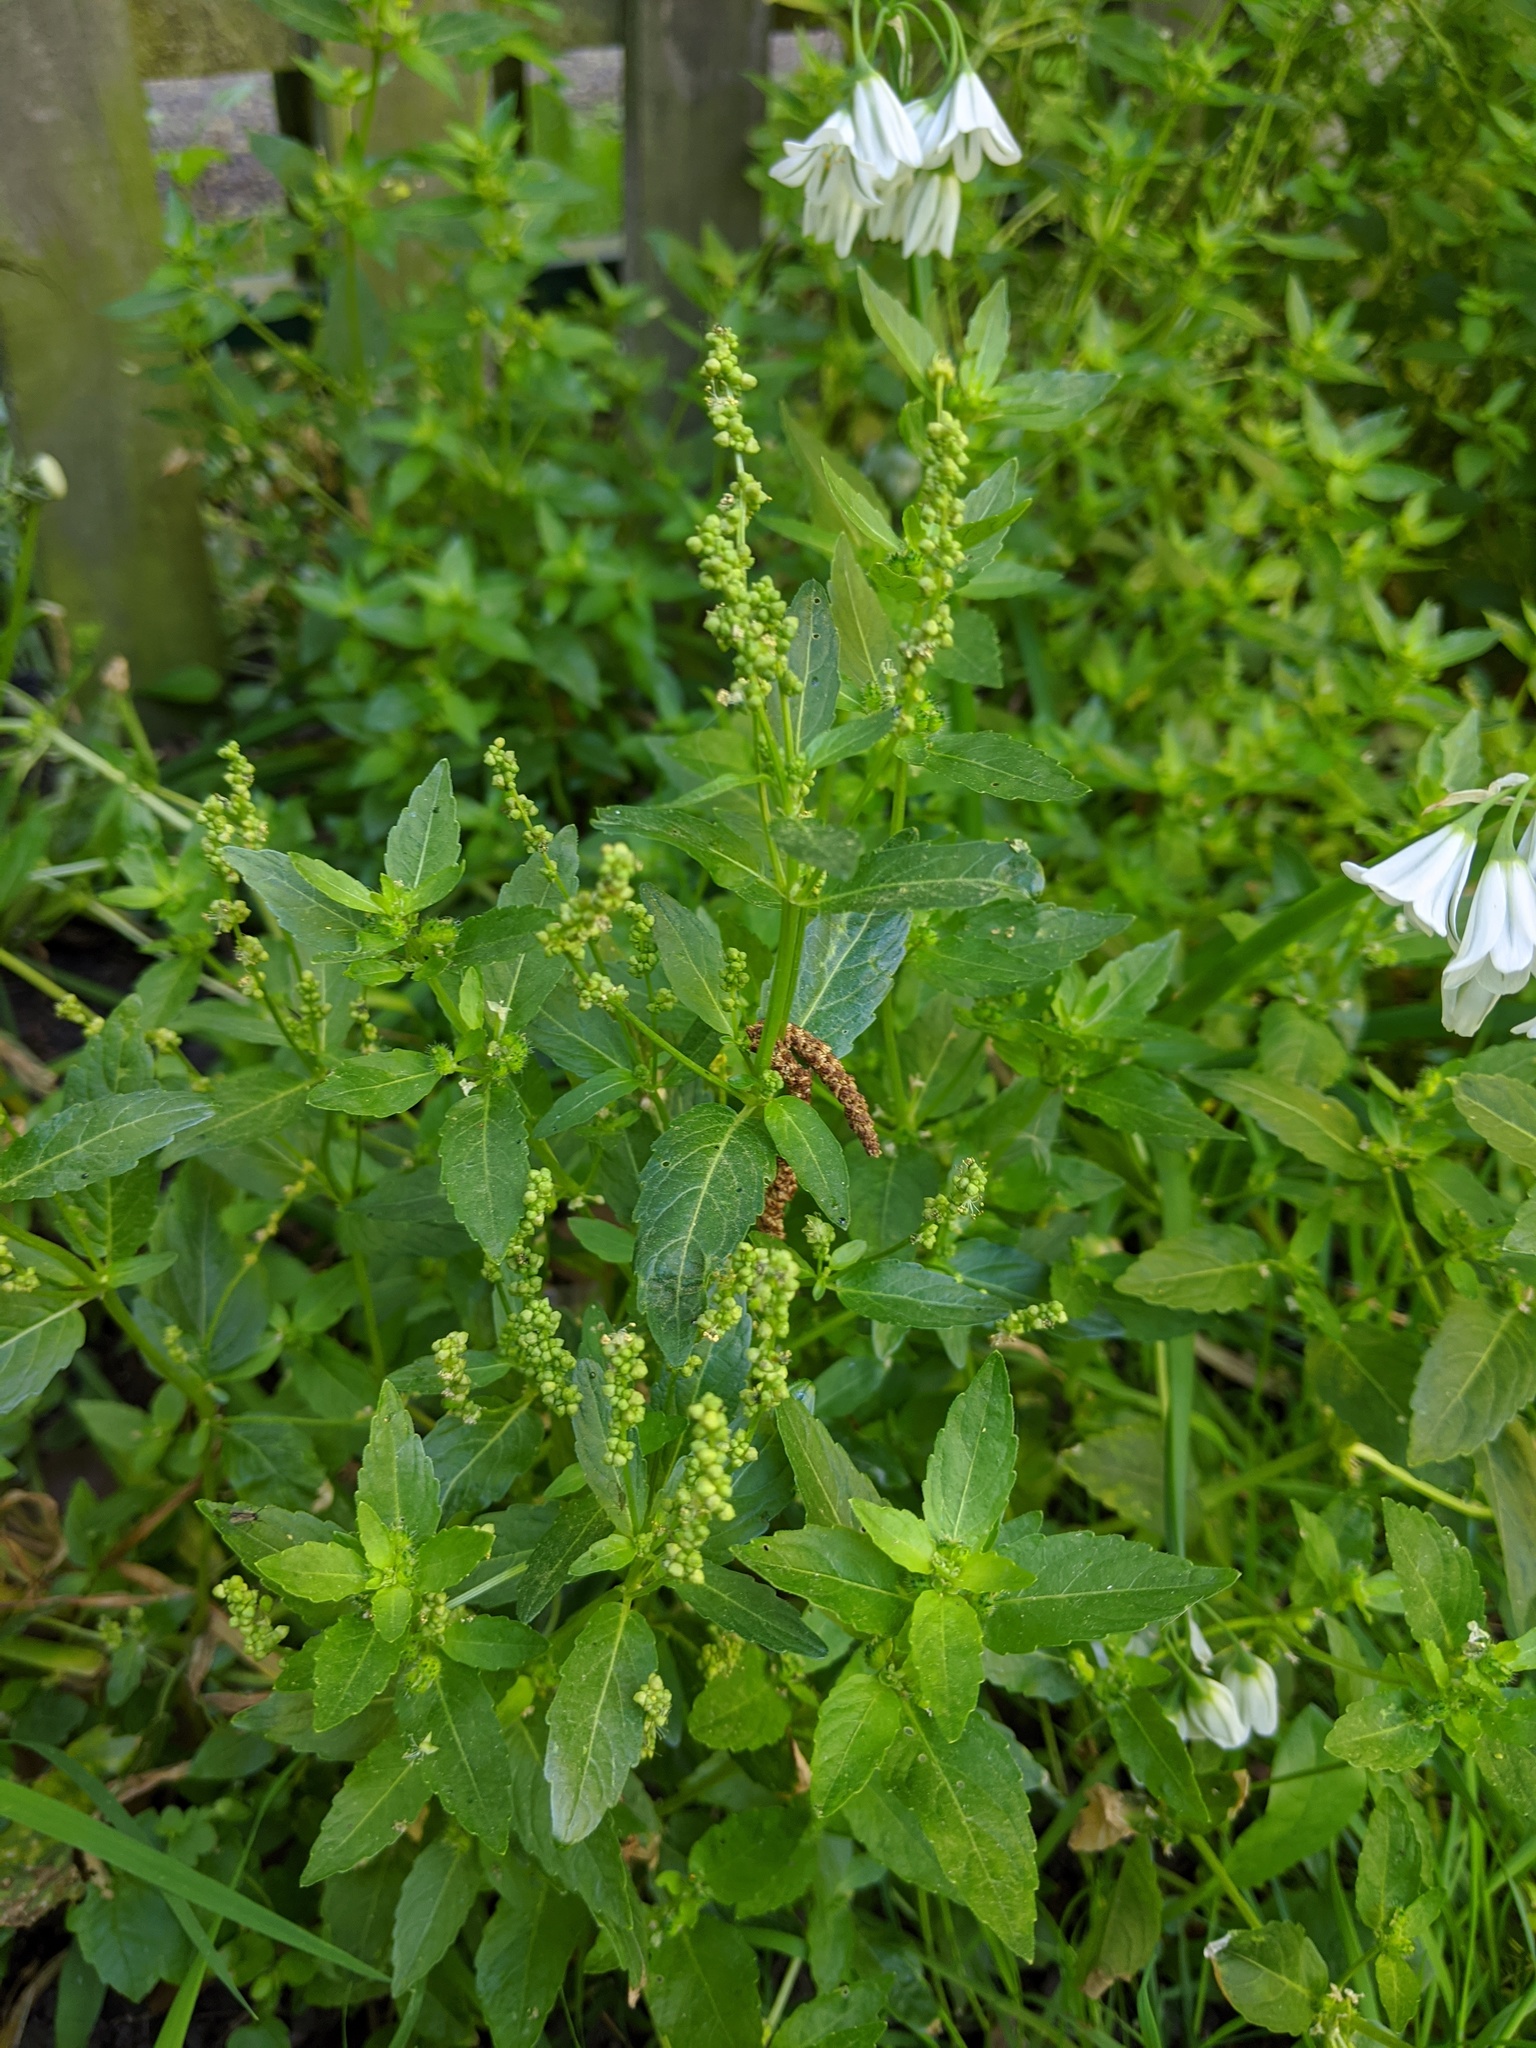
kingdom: Plantae
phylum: Tracheophyta
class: Magnoliopsida
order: Malpighiales
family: Euphorbiaceae
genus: Mercurialis
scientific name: Mercurialis annua
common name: Annual mercury
